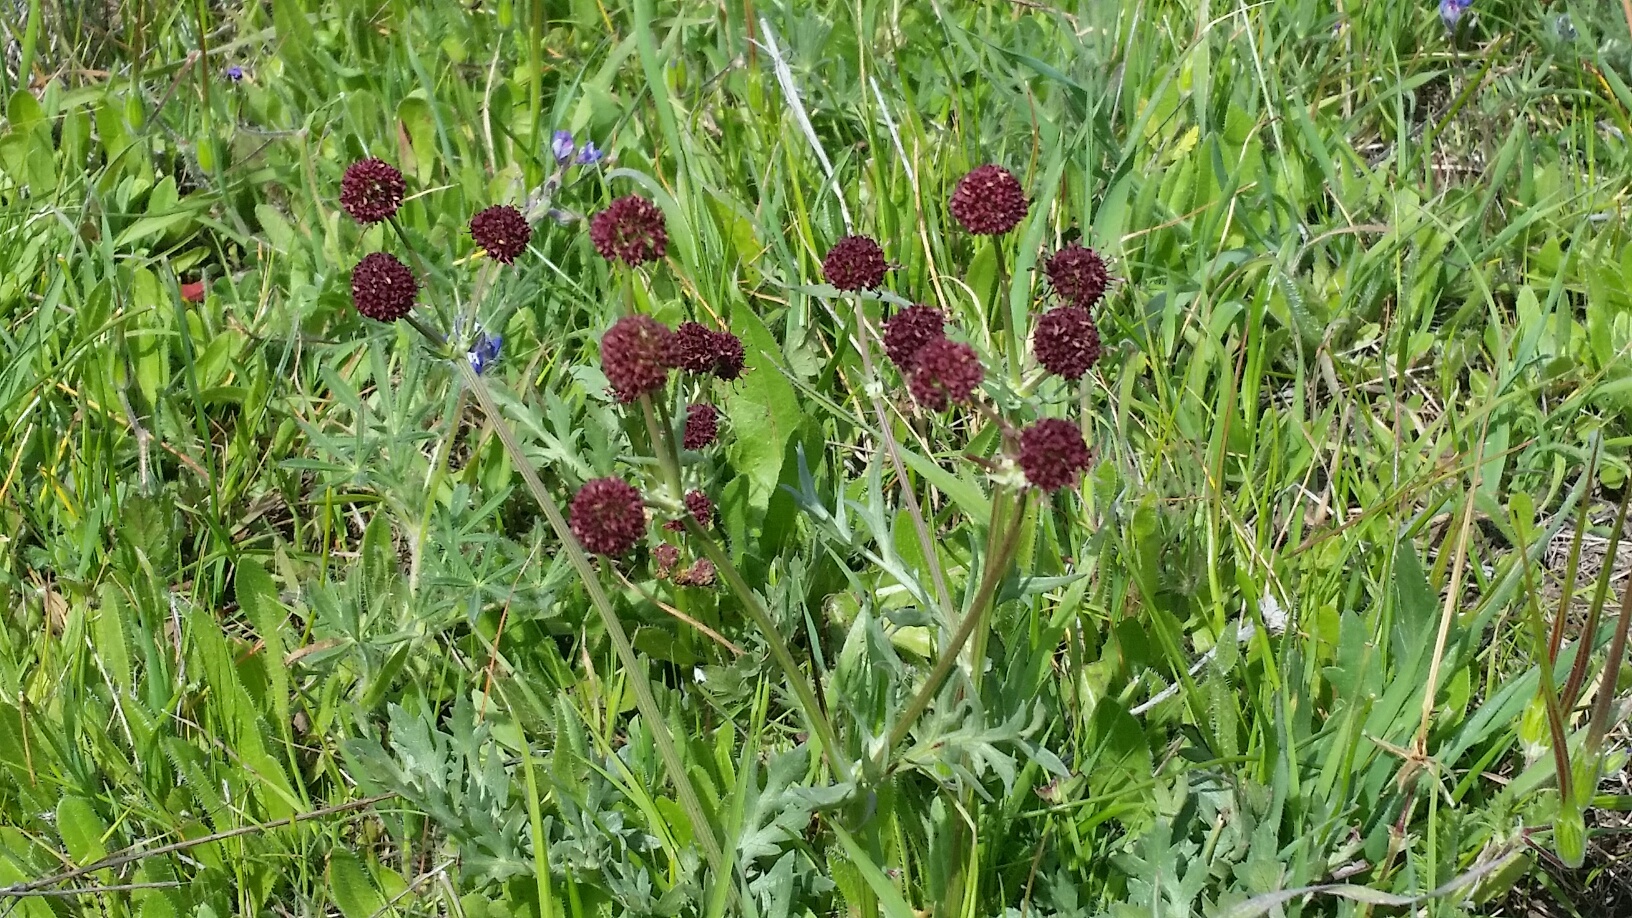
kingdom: Plantae
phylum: Tracheophyta
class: Magnoliopsida
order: Apiales
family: Apiaceae
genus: Sanicula
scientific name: Sanicula bipinnatifida
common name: Shoe-buttons
